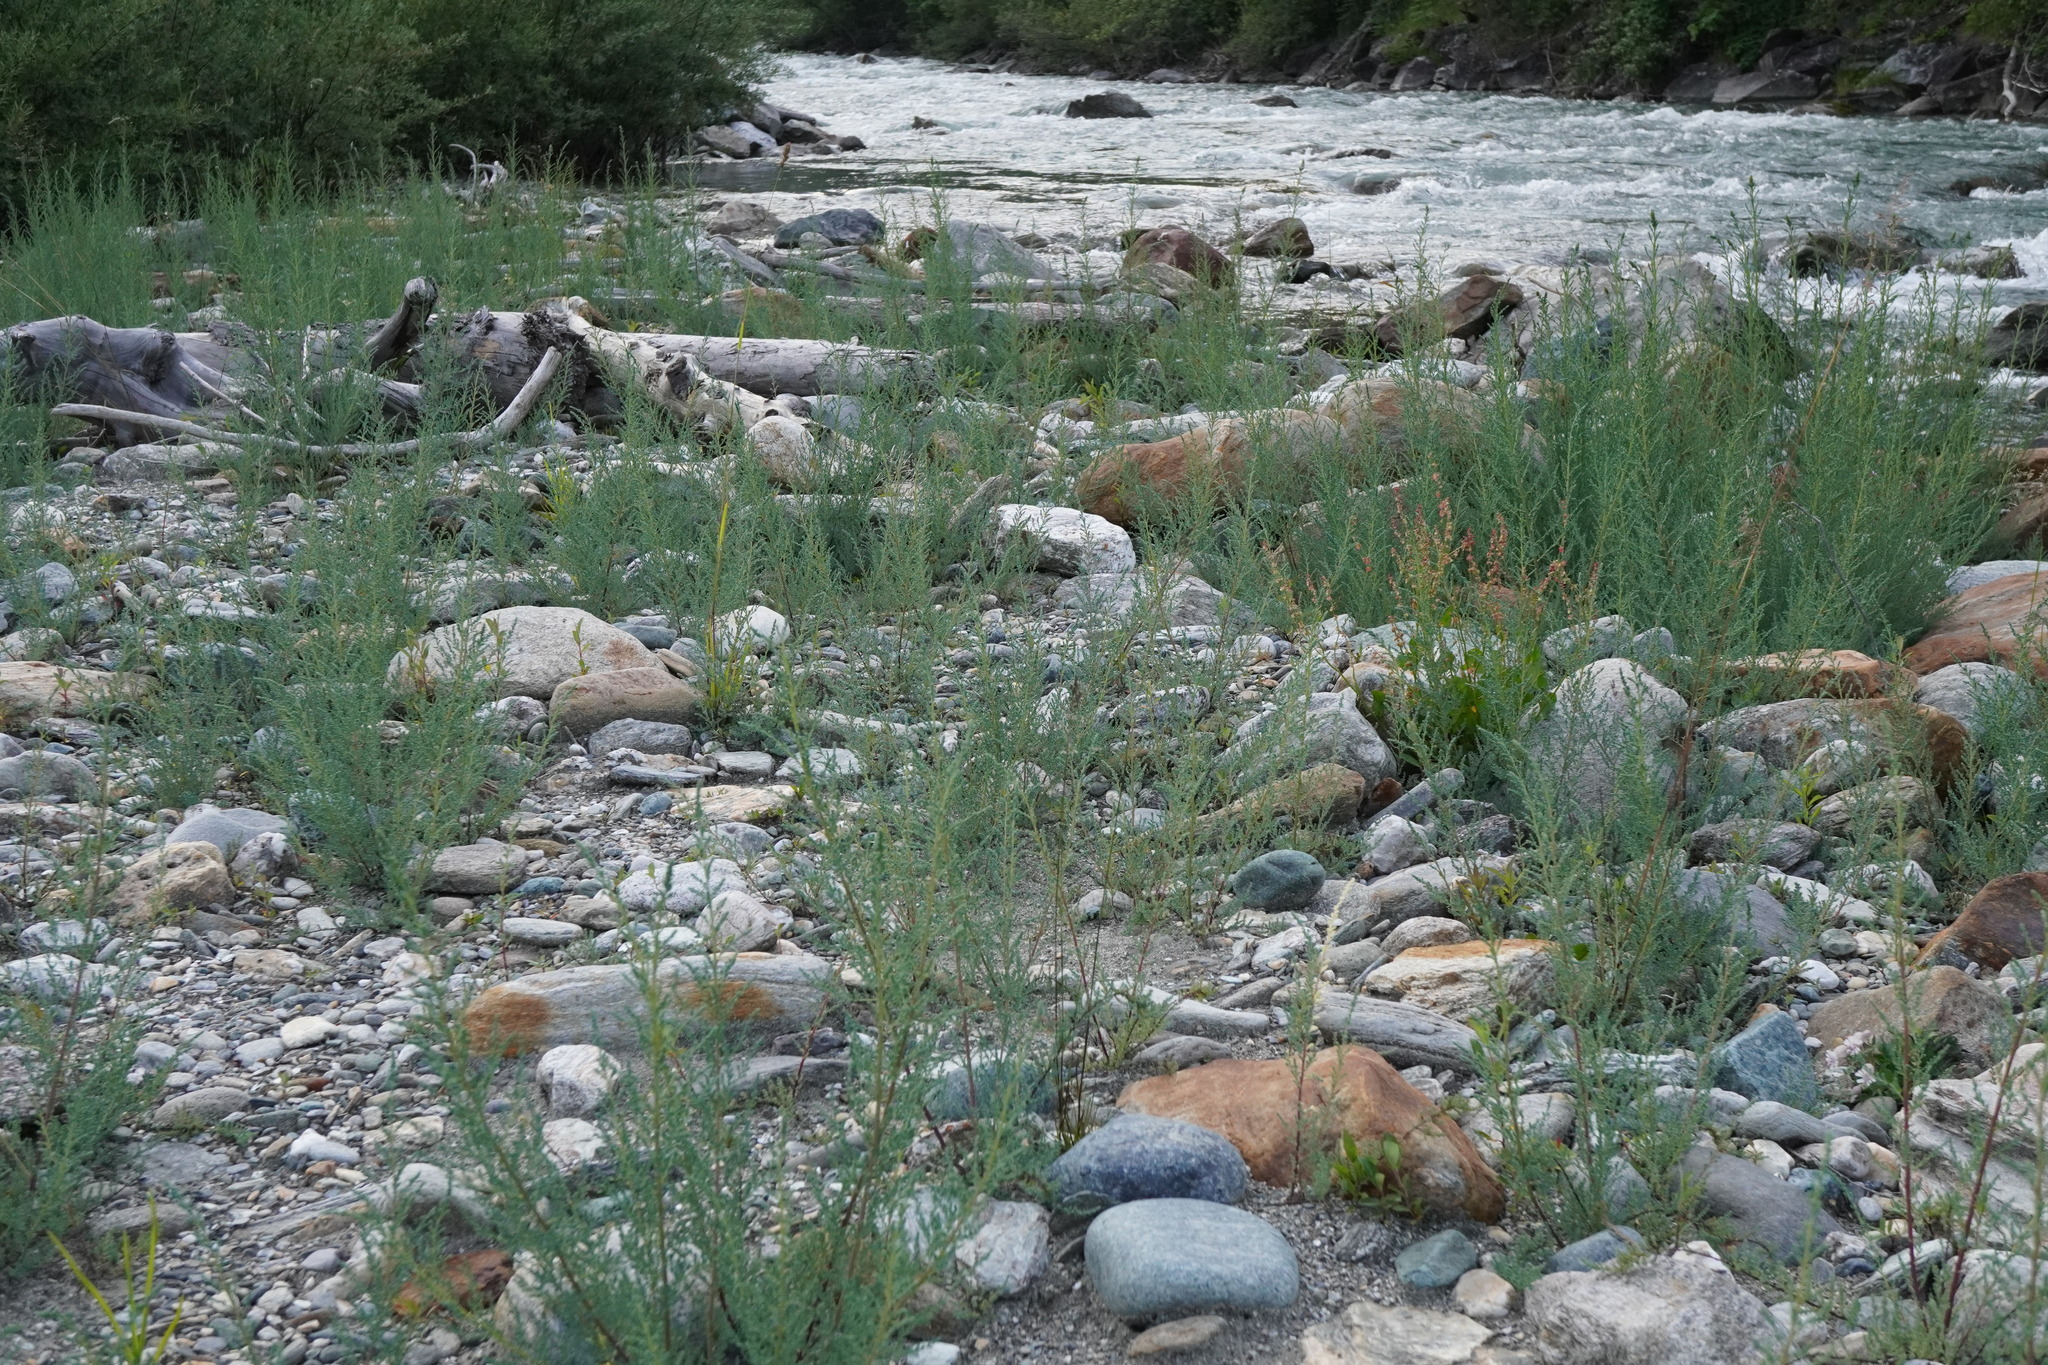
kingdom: Plantae
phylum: Tracheophyta
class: Magnoliopsida
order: Caryophyllales
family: Tamaricaceae
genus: Myricaria
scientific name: Myricaria germanica
